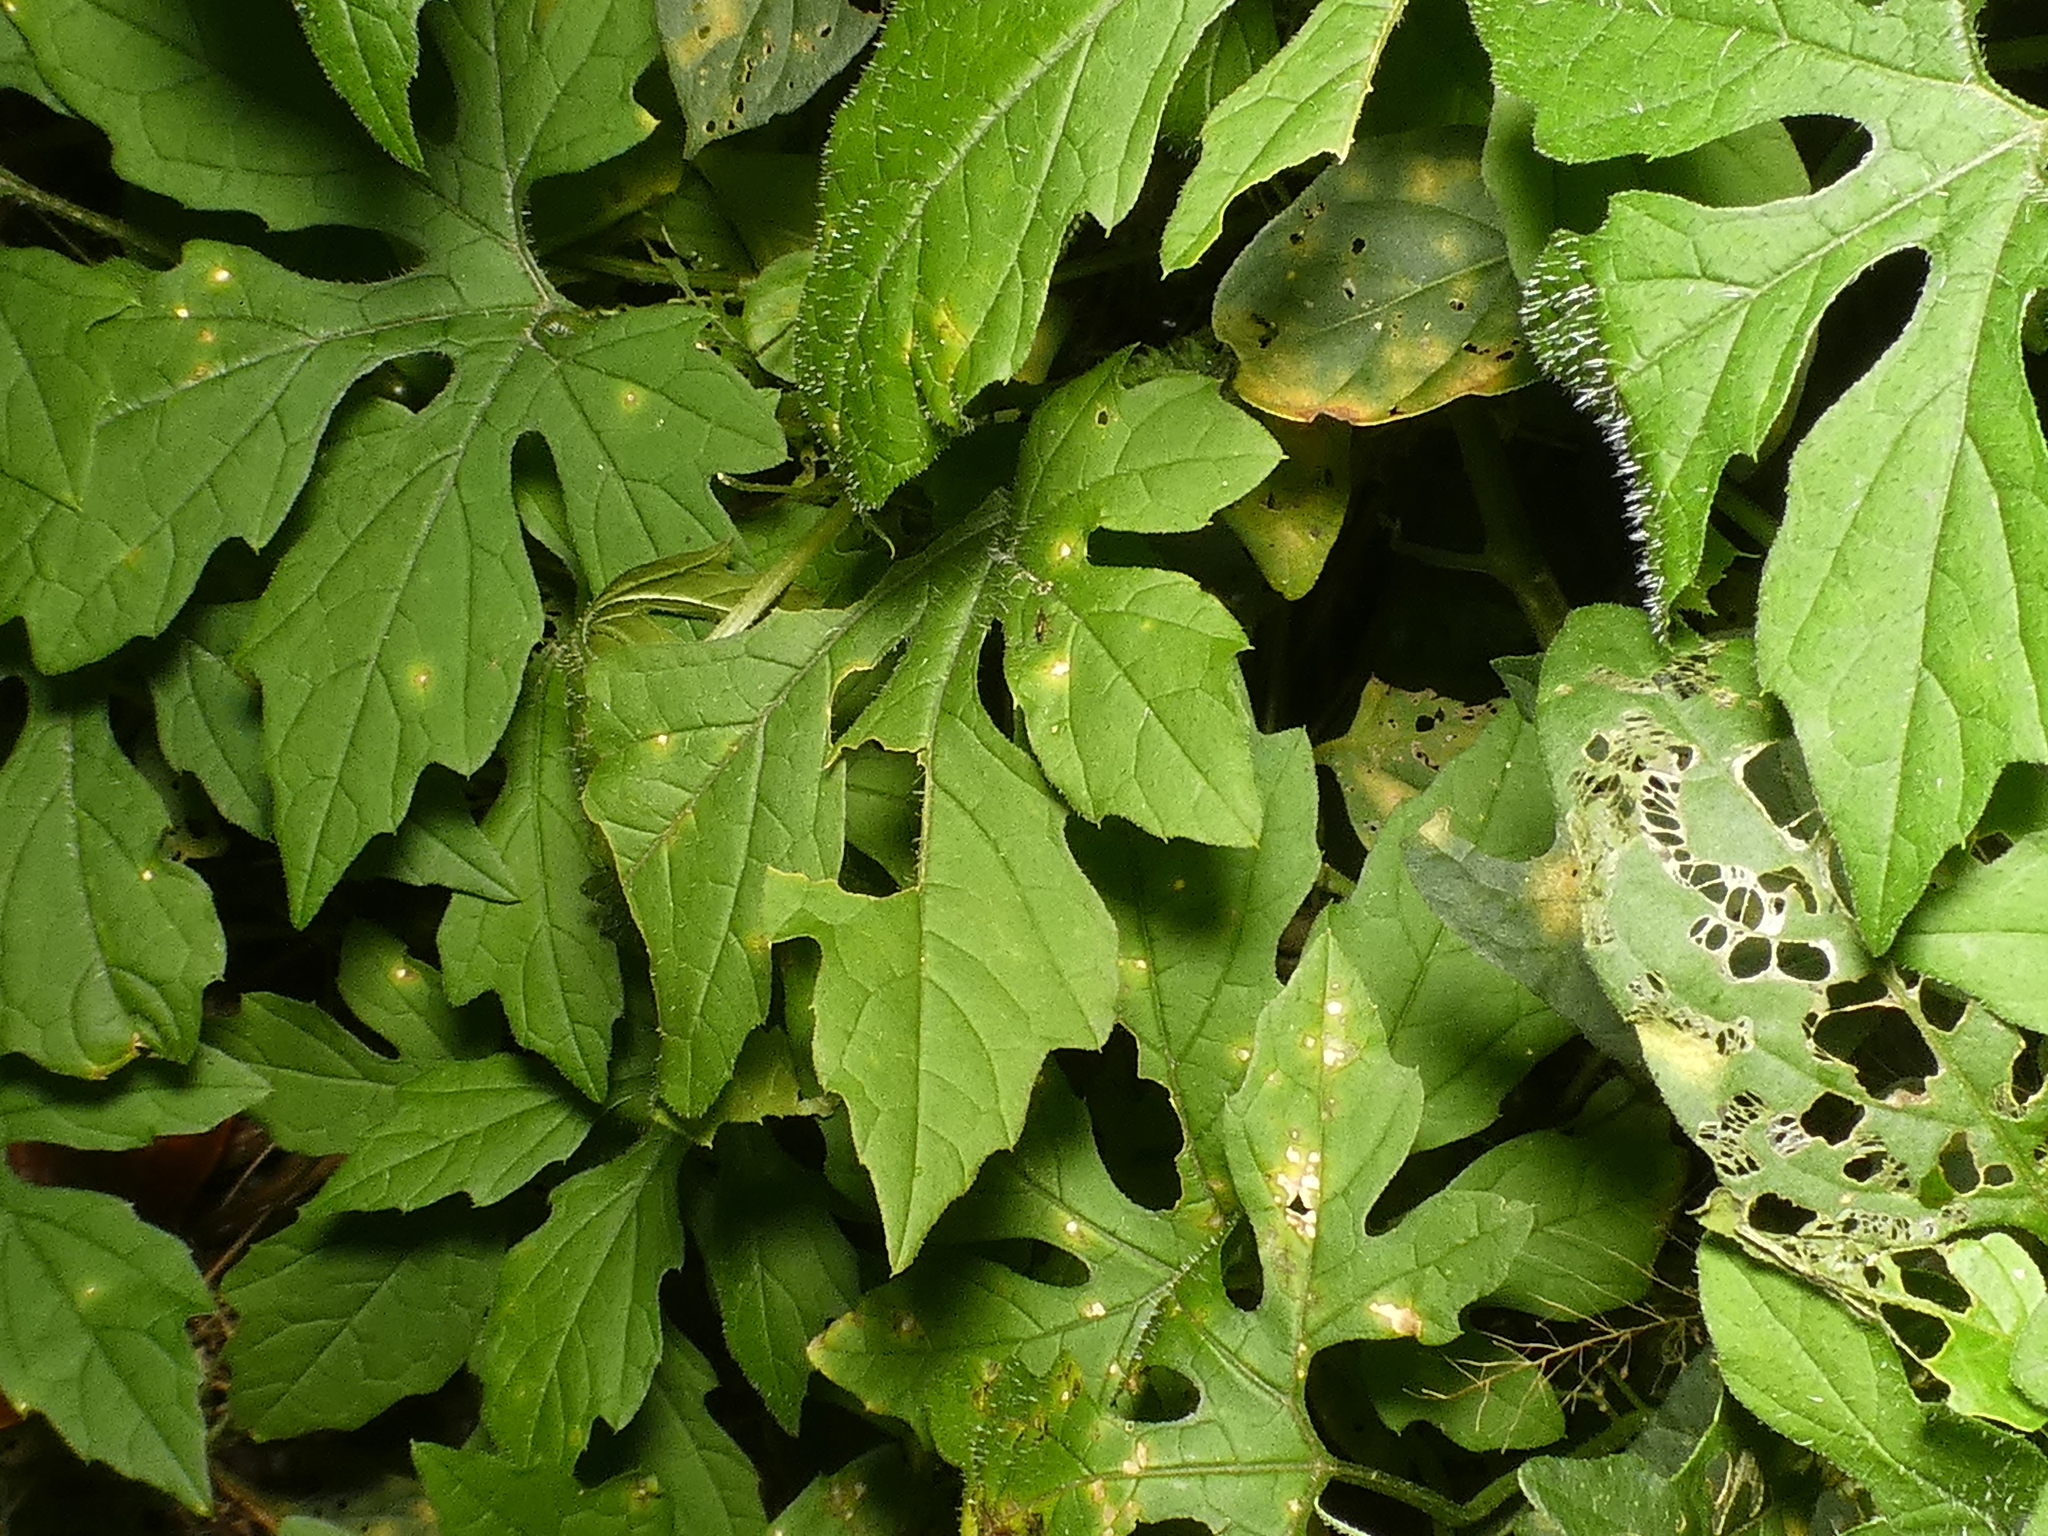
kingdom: Plantae
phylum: Tracheophyta
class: Magnoliopsida
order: Cucurbitales
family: Cucurbitaceae
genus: Momordica
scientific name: Momordica charantia
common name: Balsampear
